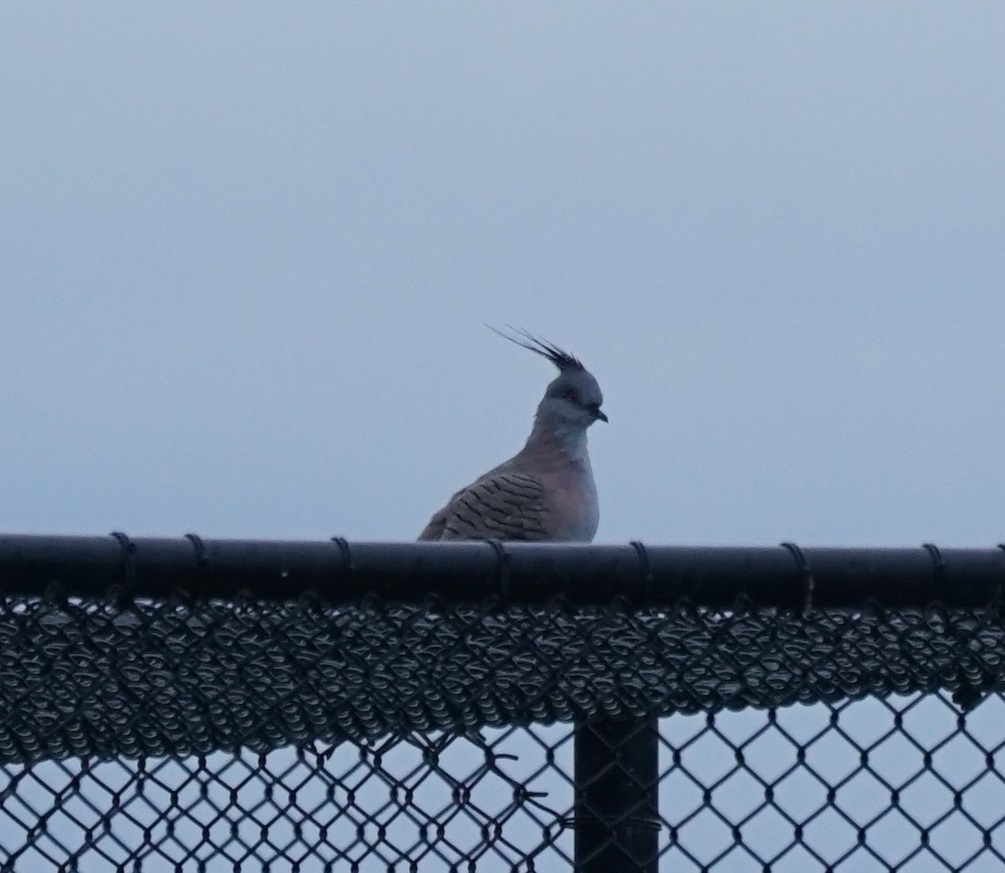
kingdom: Animalia
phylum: Chordata
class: Aves
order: Columbiformes
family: Columbidae
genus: Ocyphaps
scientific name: Ocyphaps lophotes
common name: Crested pigeon
